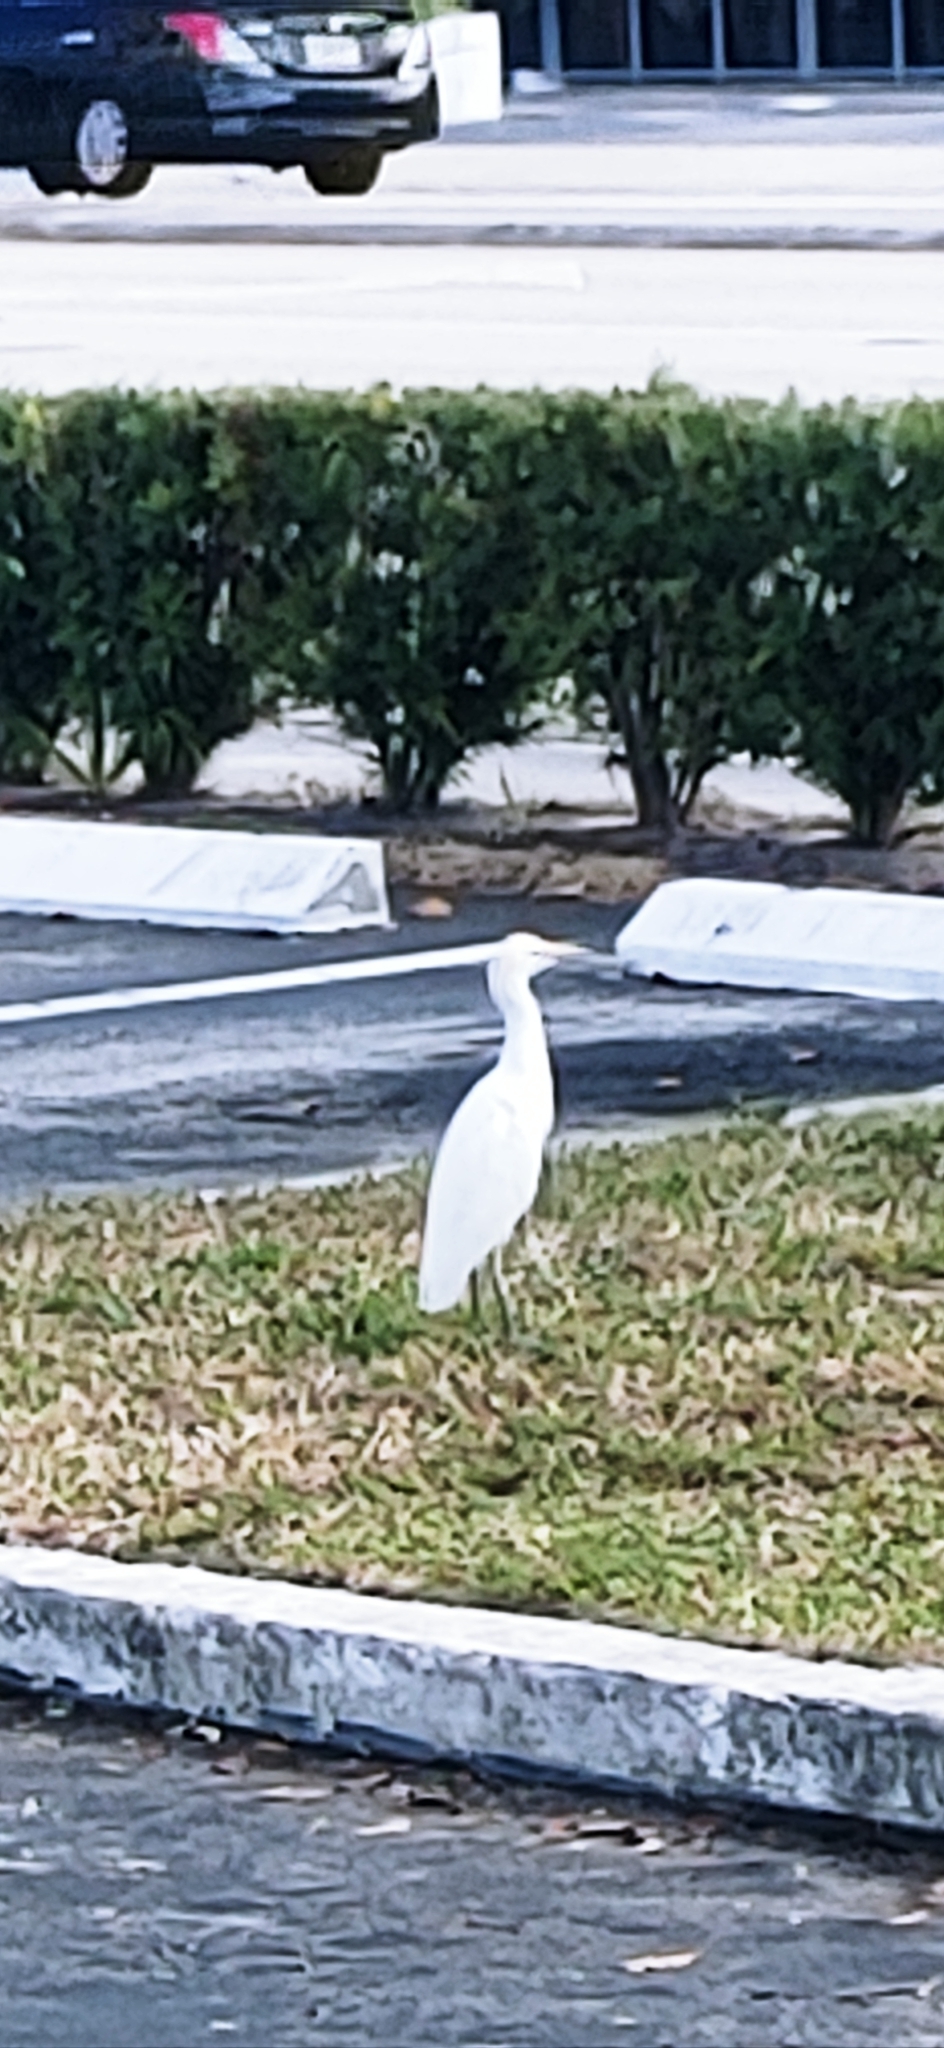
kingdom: Animalia
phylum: Chordata
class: Aves
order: Pelecaniformes
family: Ardeidae
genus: Bubulcus
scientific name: Bubulcus ibis
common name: Cattle egret
